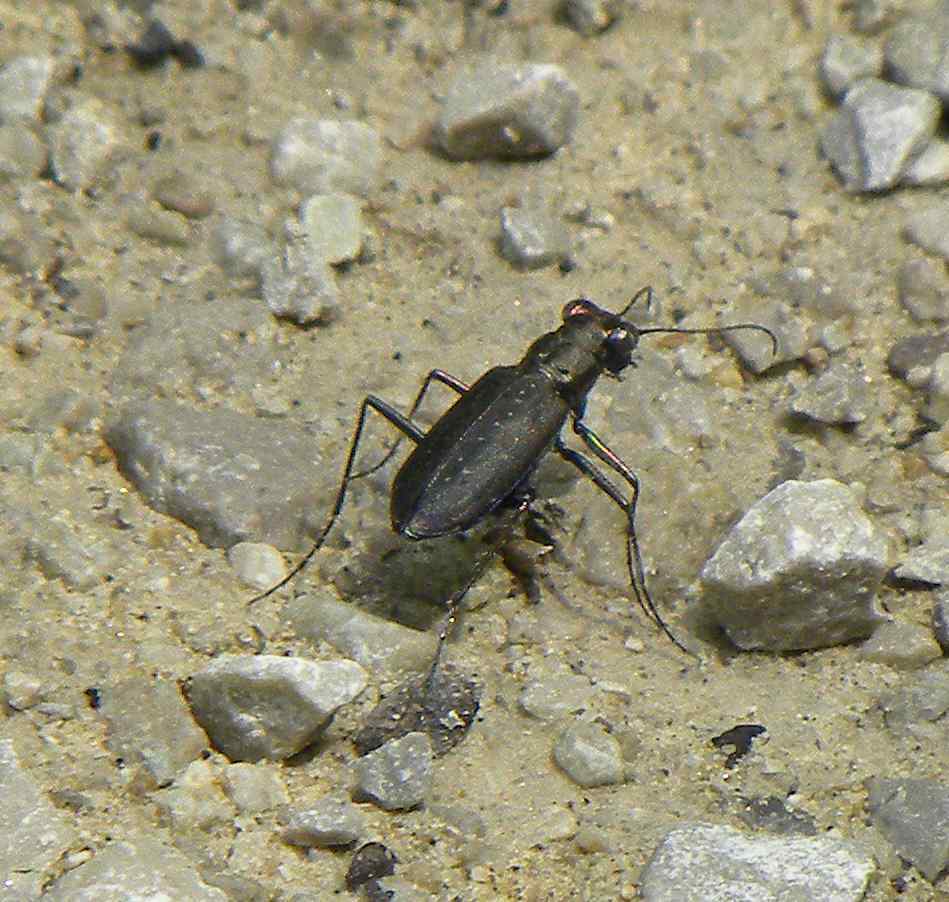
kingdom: Animalia
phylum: Arthropoda
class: Insecta
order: Coleoptera
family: Carabidae
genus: Cicindela
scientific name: Cicindela punctulata
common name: Punctured tiger beetle
